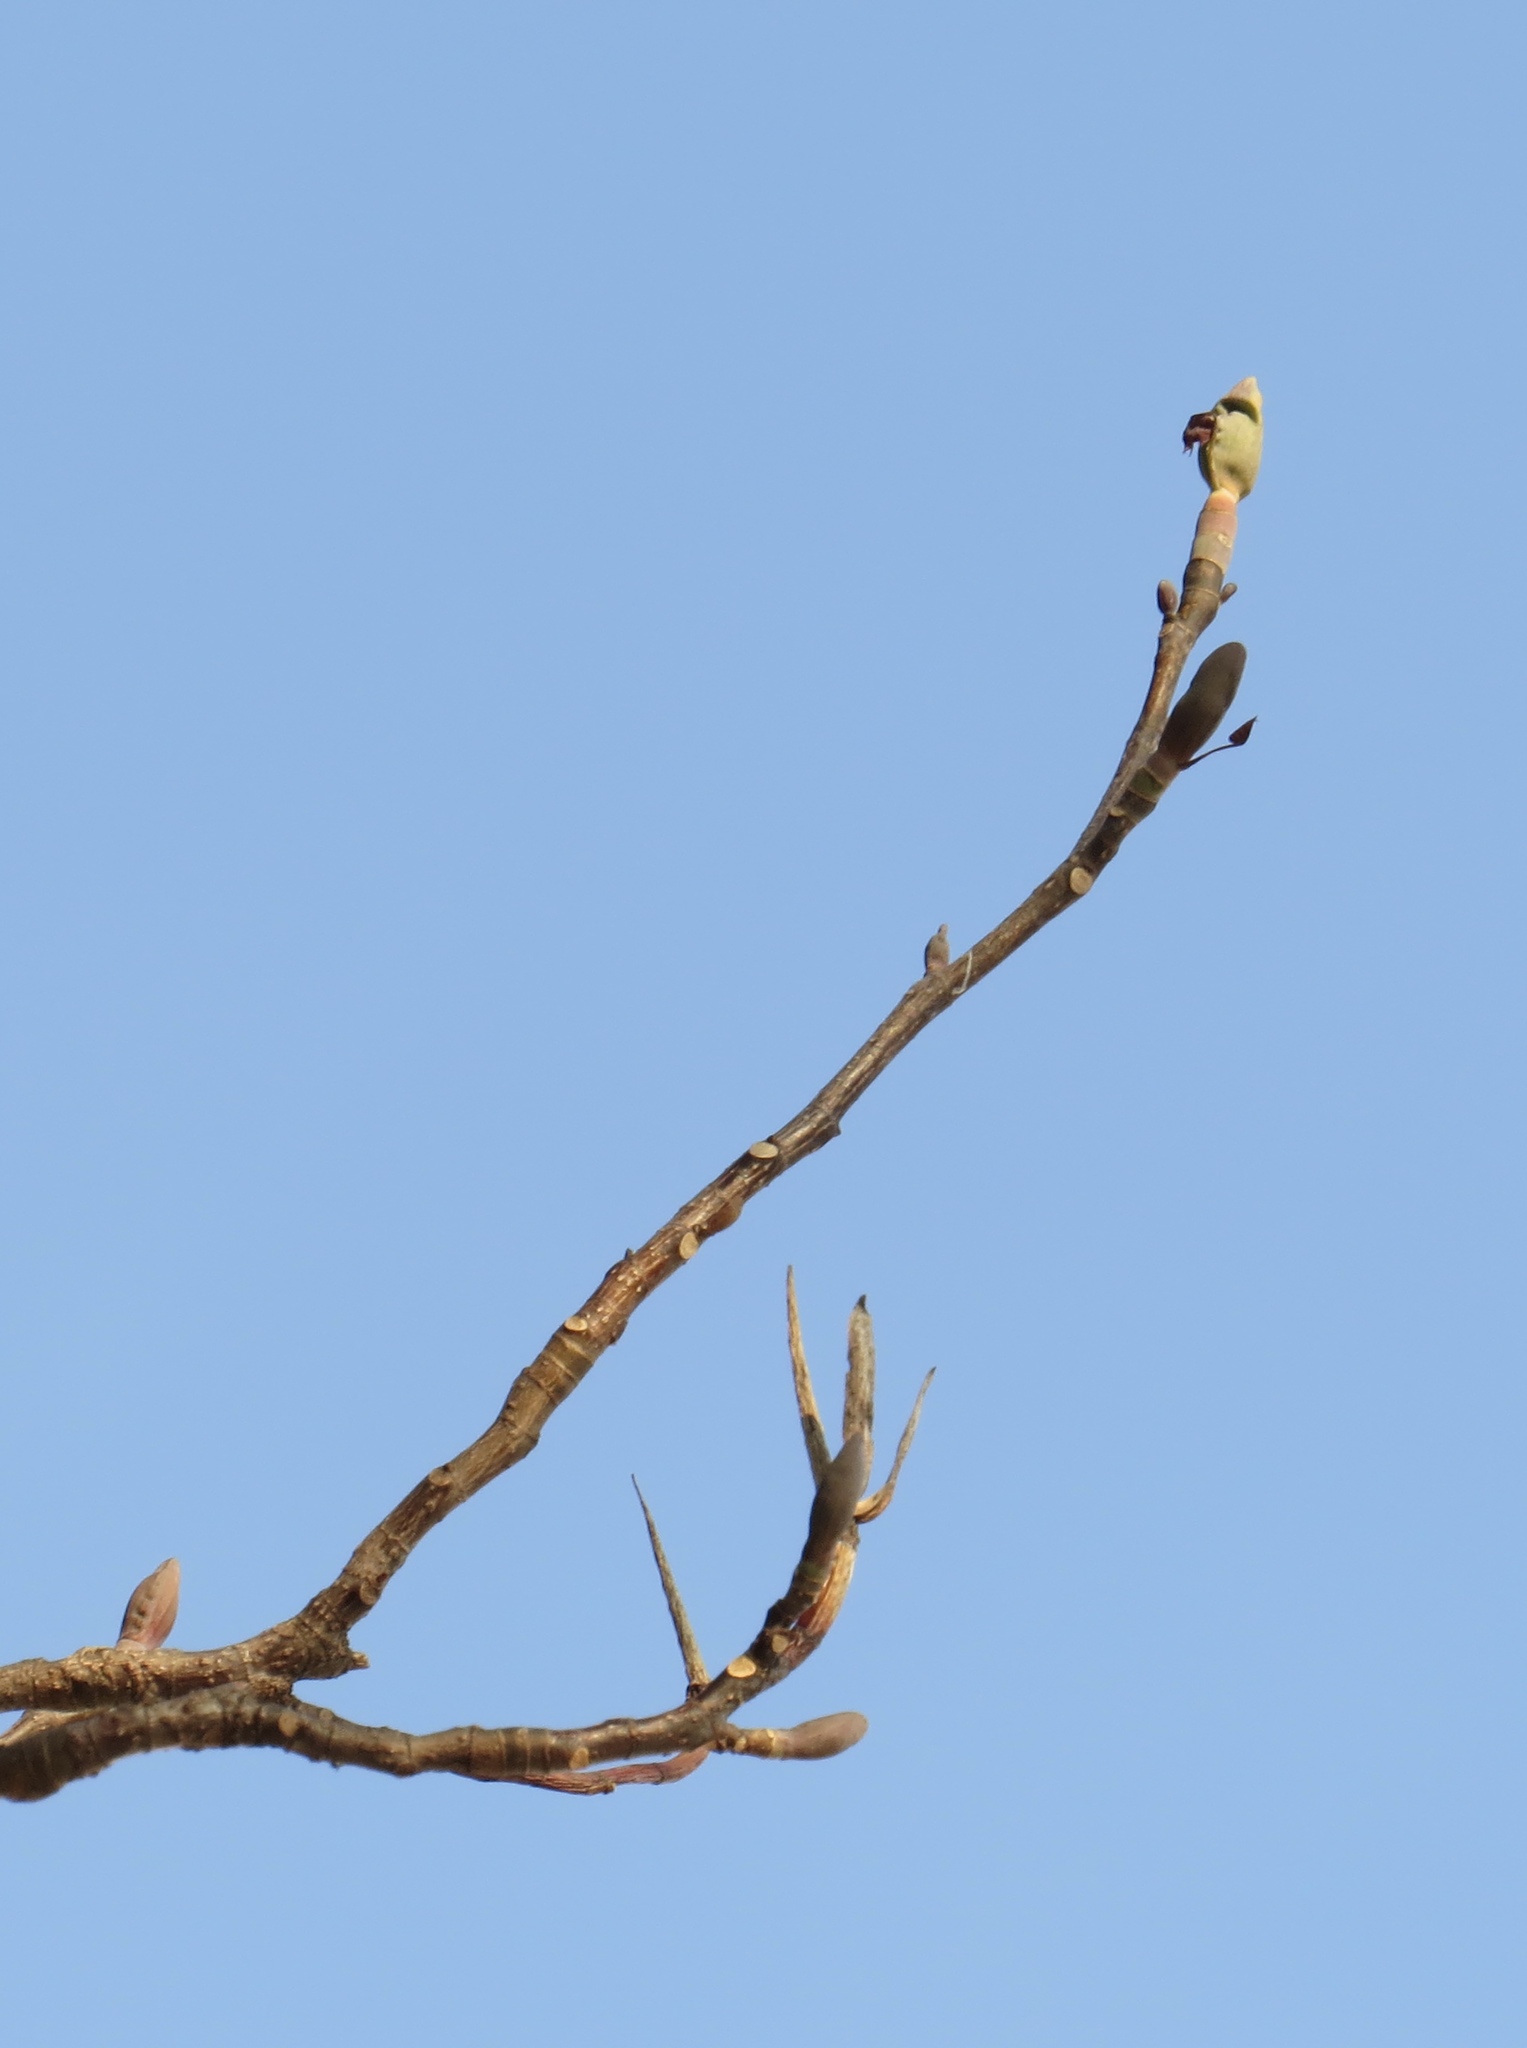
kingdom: Plantae
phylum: Tracheophyta
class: Magnoliopsida
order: Magnoliales
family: Magnoliaceae
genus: Liriodendron
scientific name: Liriodendron tulipifera
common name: Tulip tree
